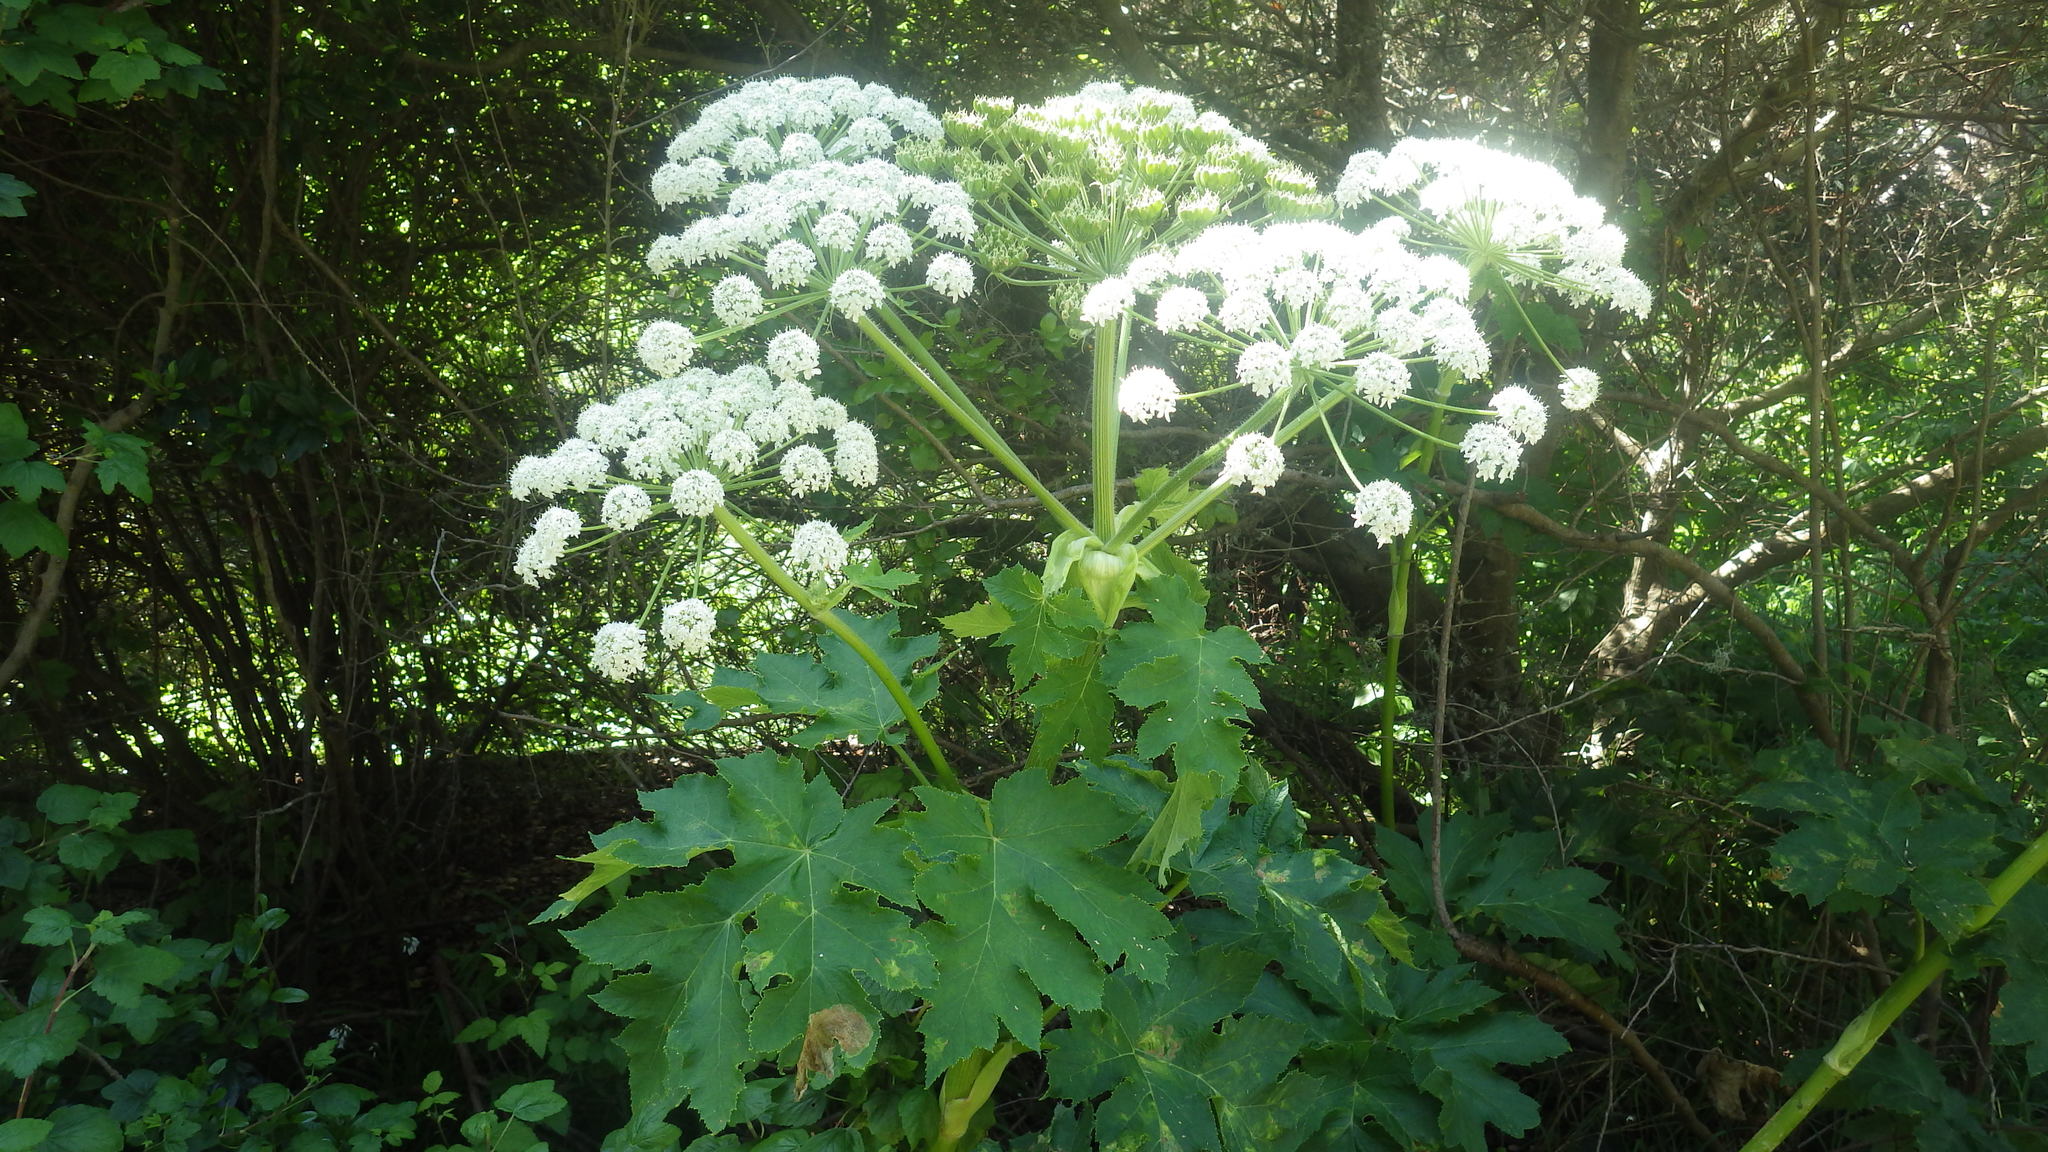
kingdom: Plantae
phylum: Tracheophyta
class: Magnoliopsida
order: Apiales
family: Apiaceae
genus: Heracleum
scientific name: Heracleum maximum
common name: American cow parsnip
